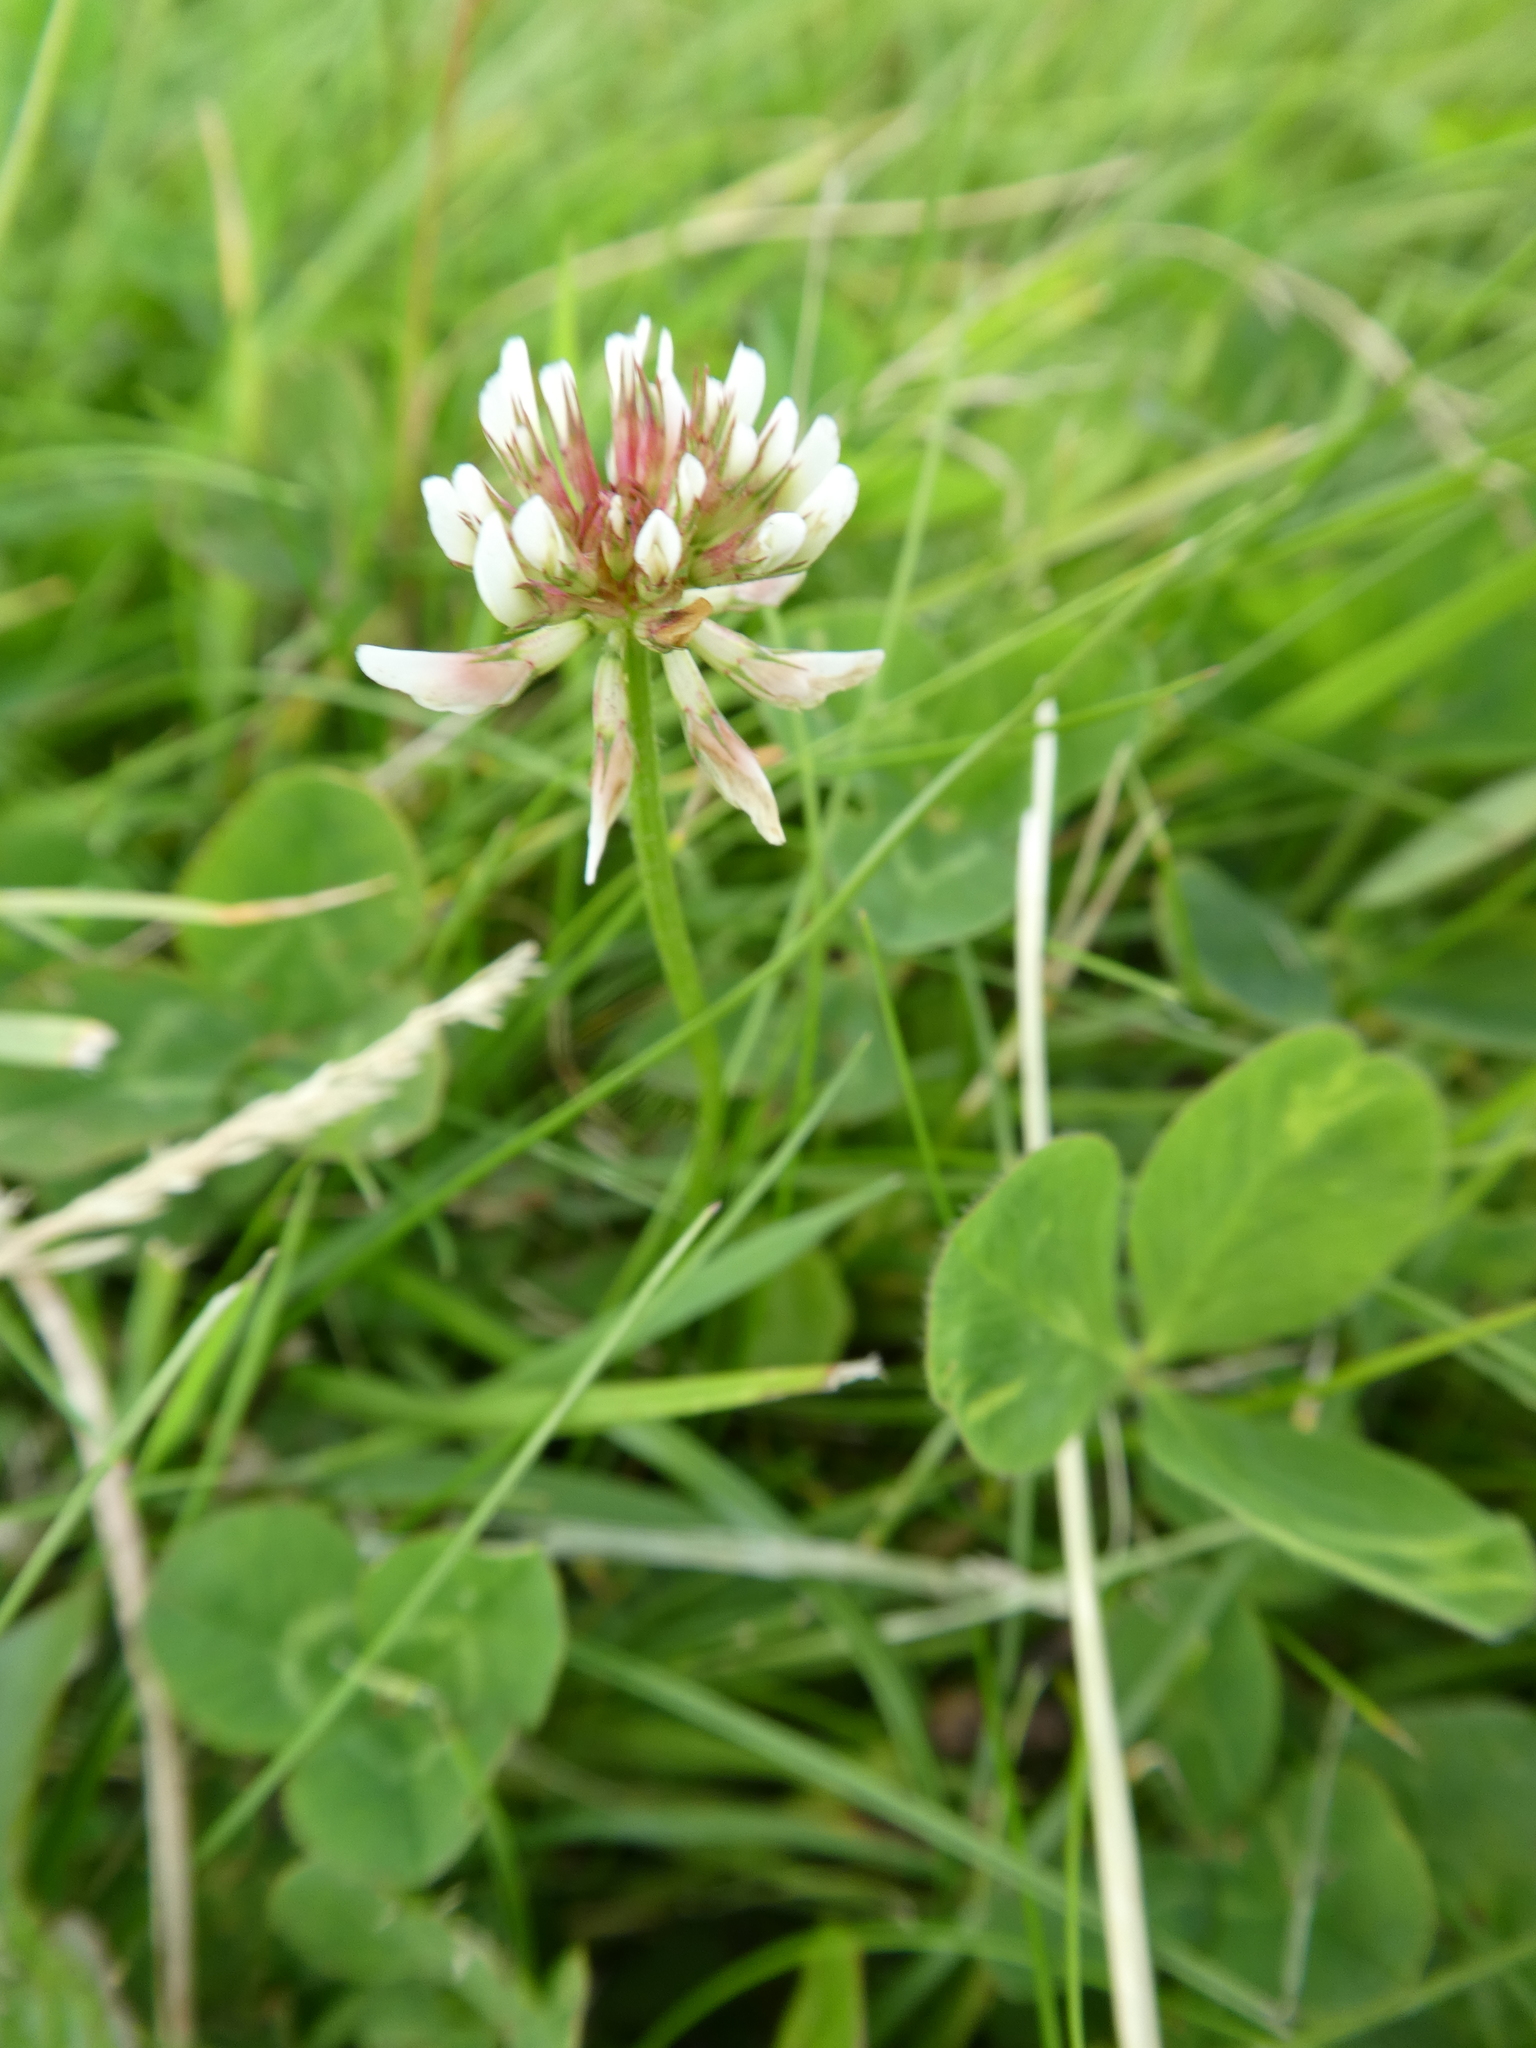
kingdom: Plantae
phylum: Tracheophyta
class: Magnoliopsida
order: Fabales
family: Fabaceae
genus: Trifolium
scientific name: Trifolium repens
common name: White clover
